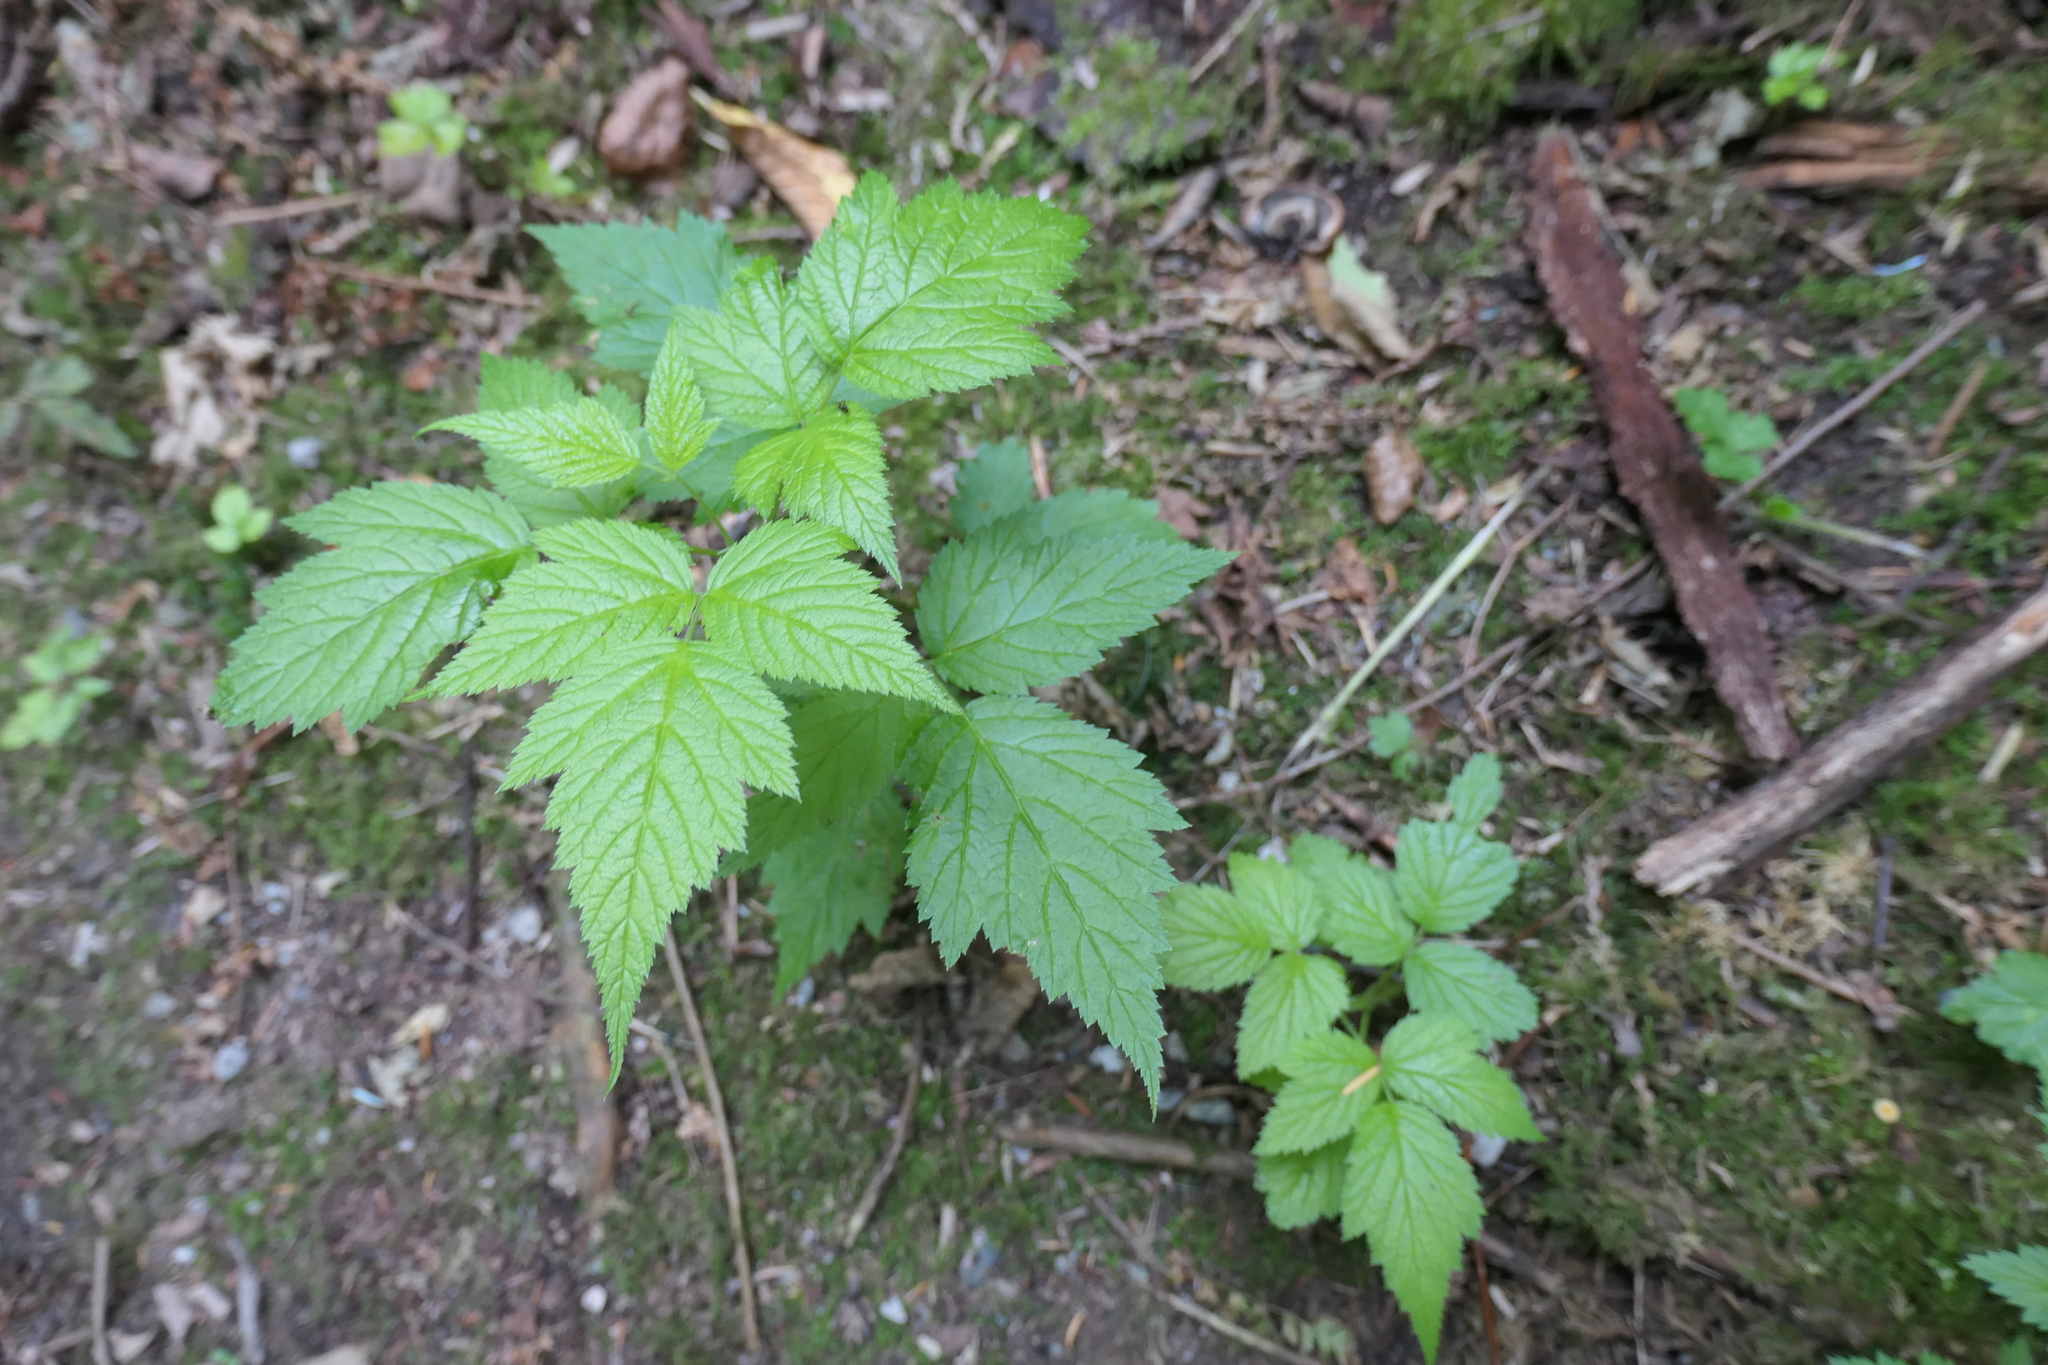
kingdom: Plantae
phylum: Tracheophyta
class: Magnoliopsida
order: Rosales
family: Rosaceae
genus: Rubus
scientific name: Rubus spectabilis
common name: Salmonberry
